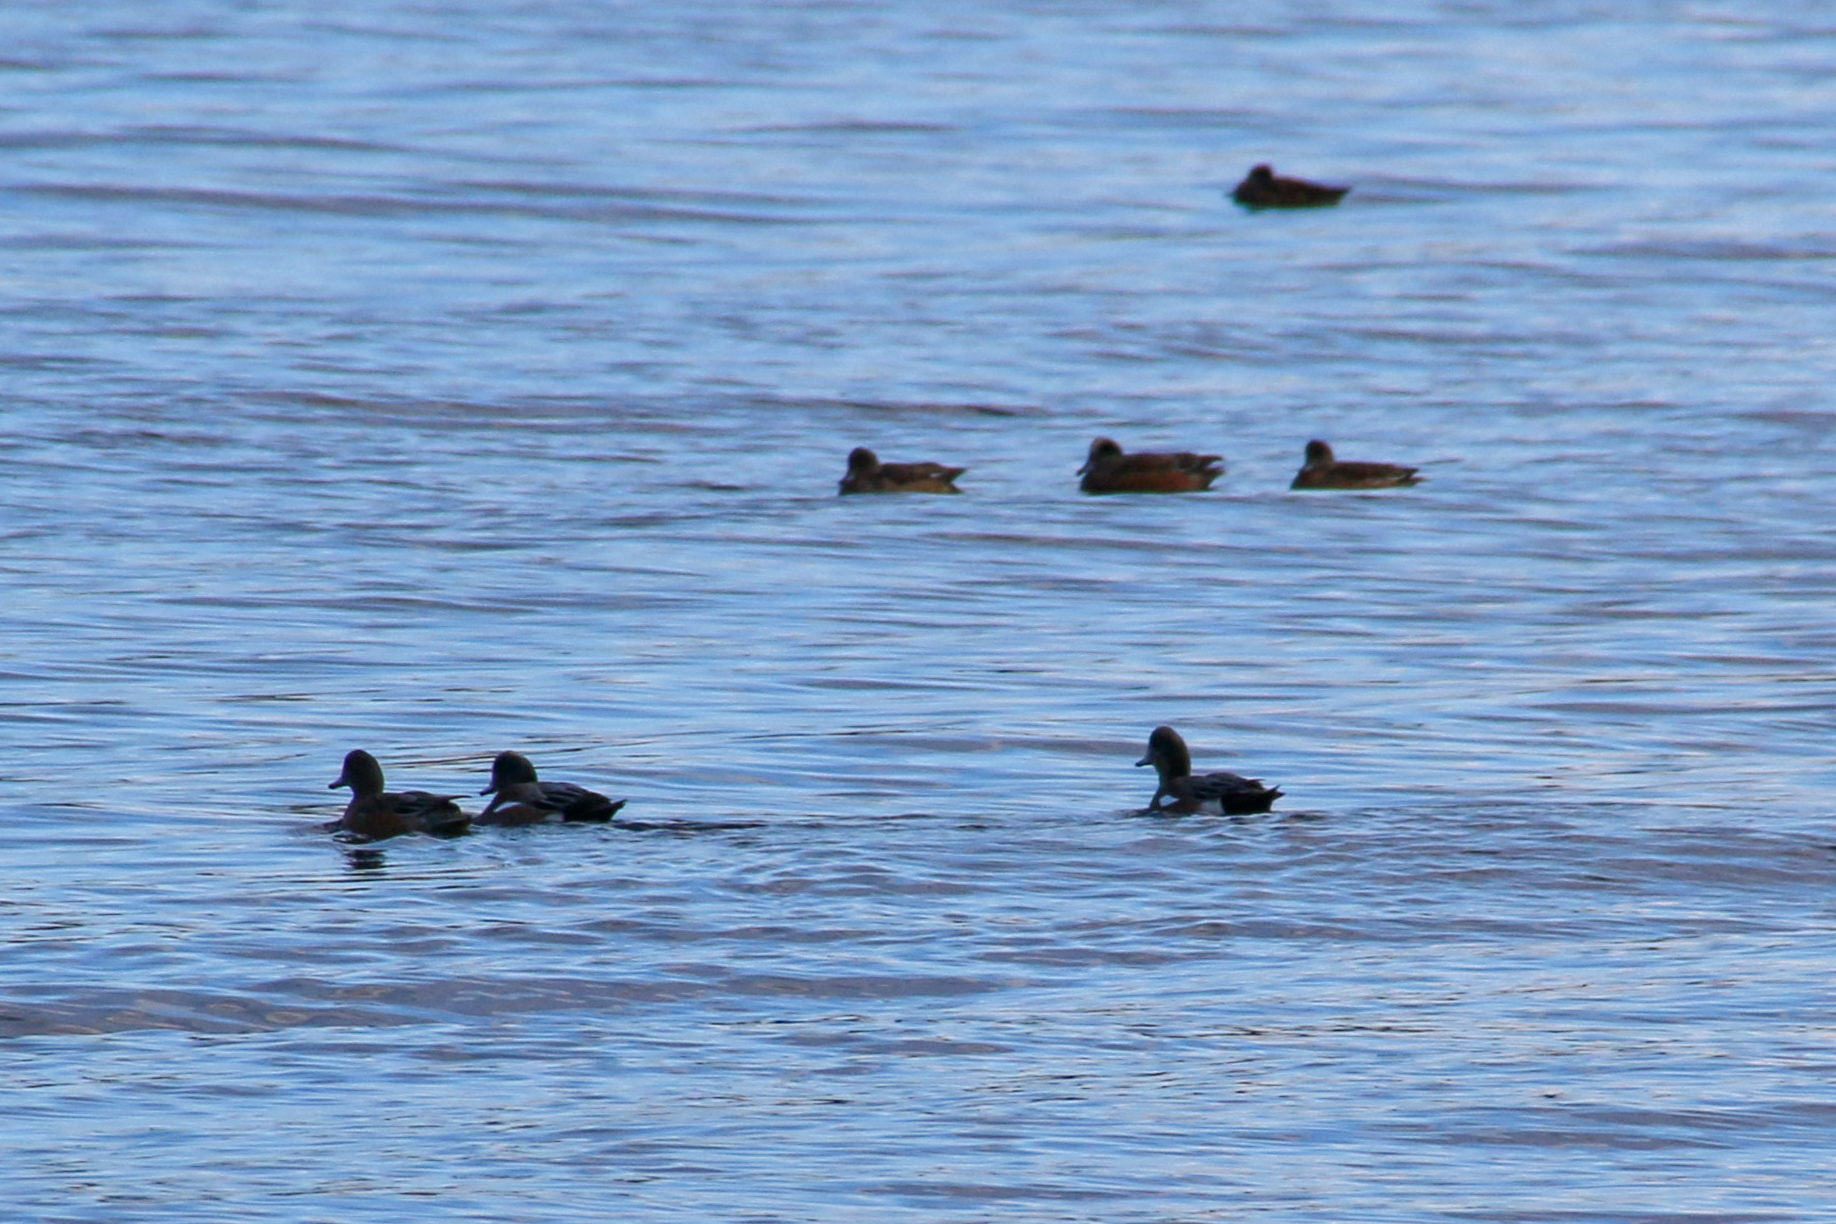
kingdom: Animalia
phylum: Chordata
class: Aves
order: Anseriformes
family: Anatidae
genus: Mareca
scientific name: Mareca americana
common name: American wigeon
